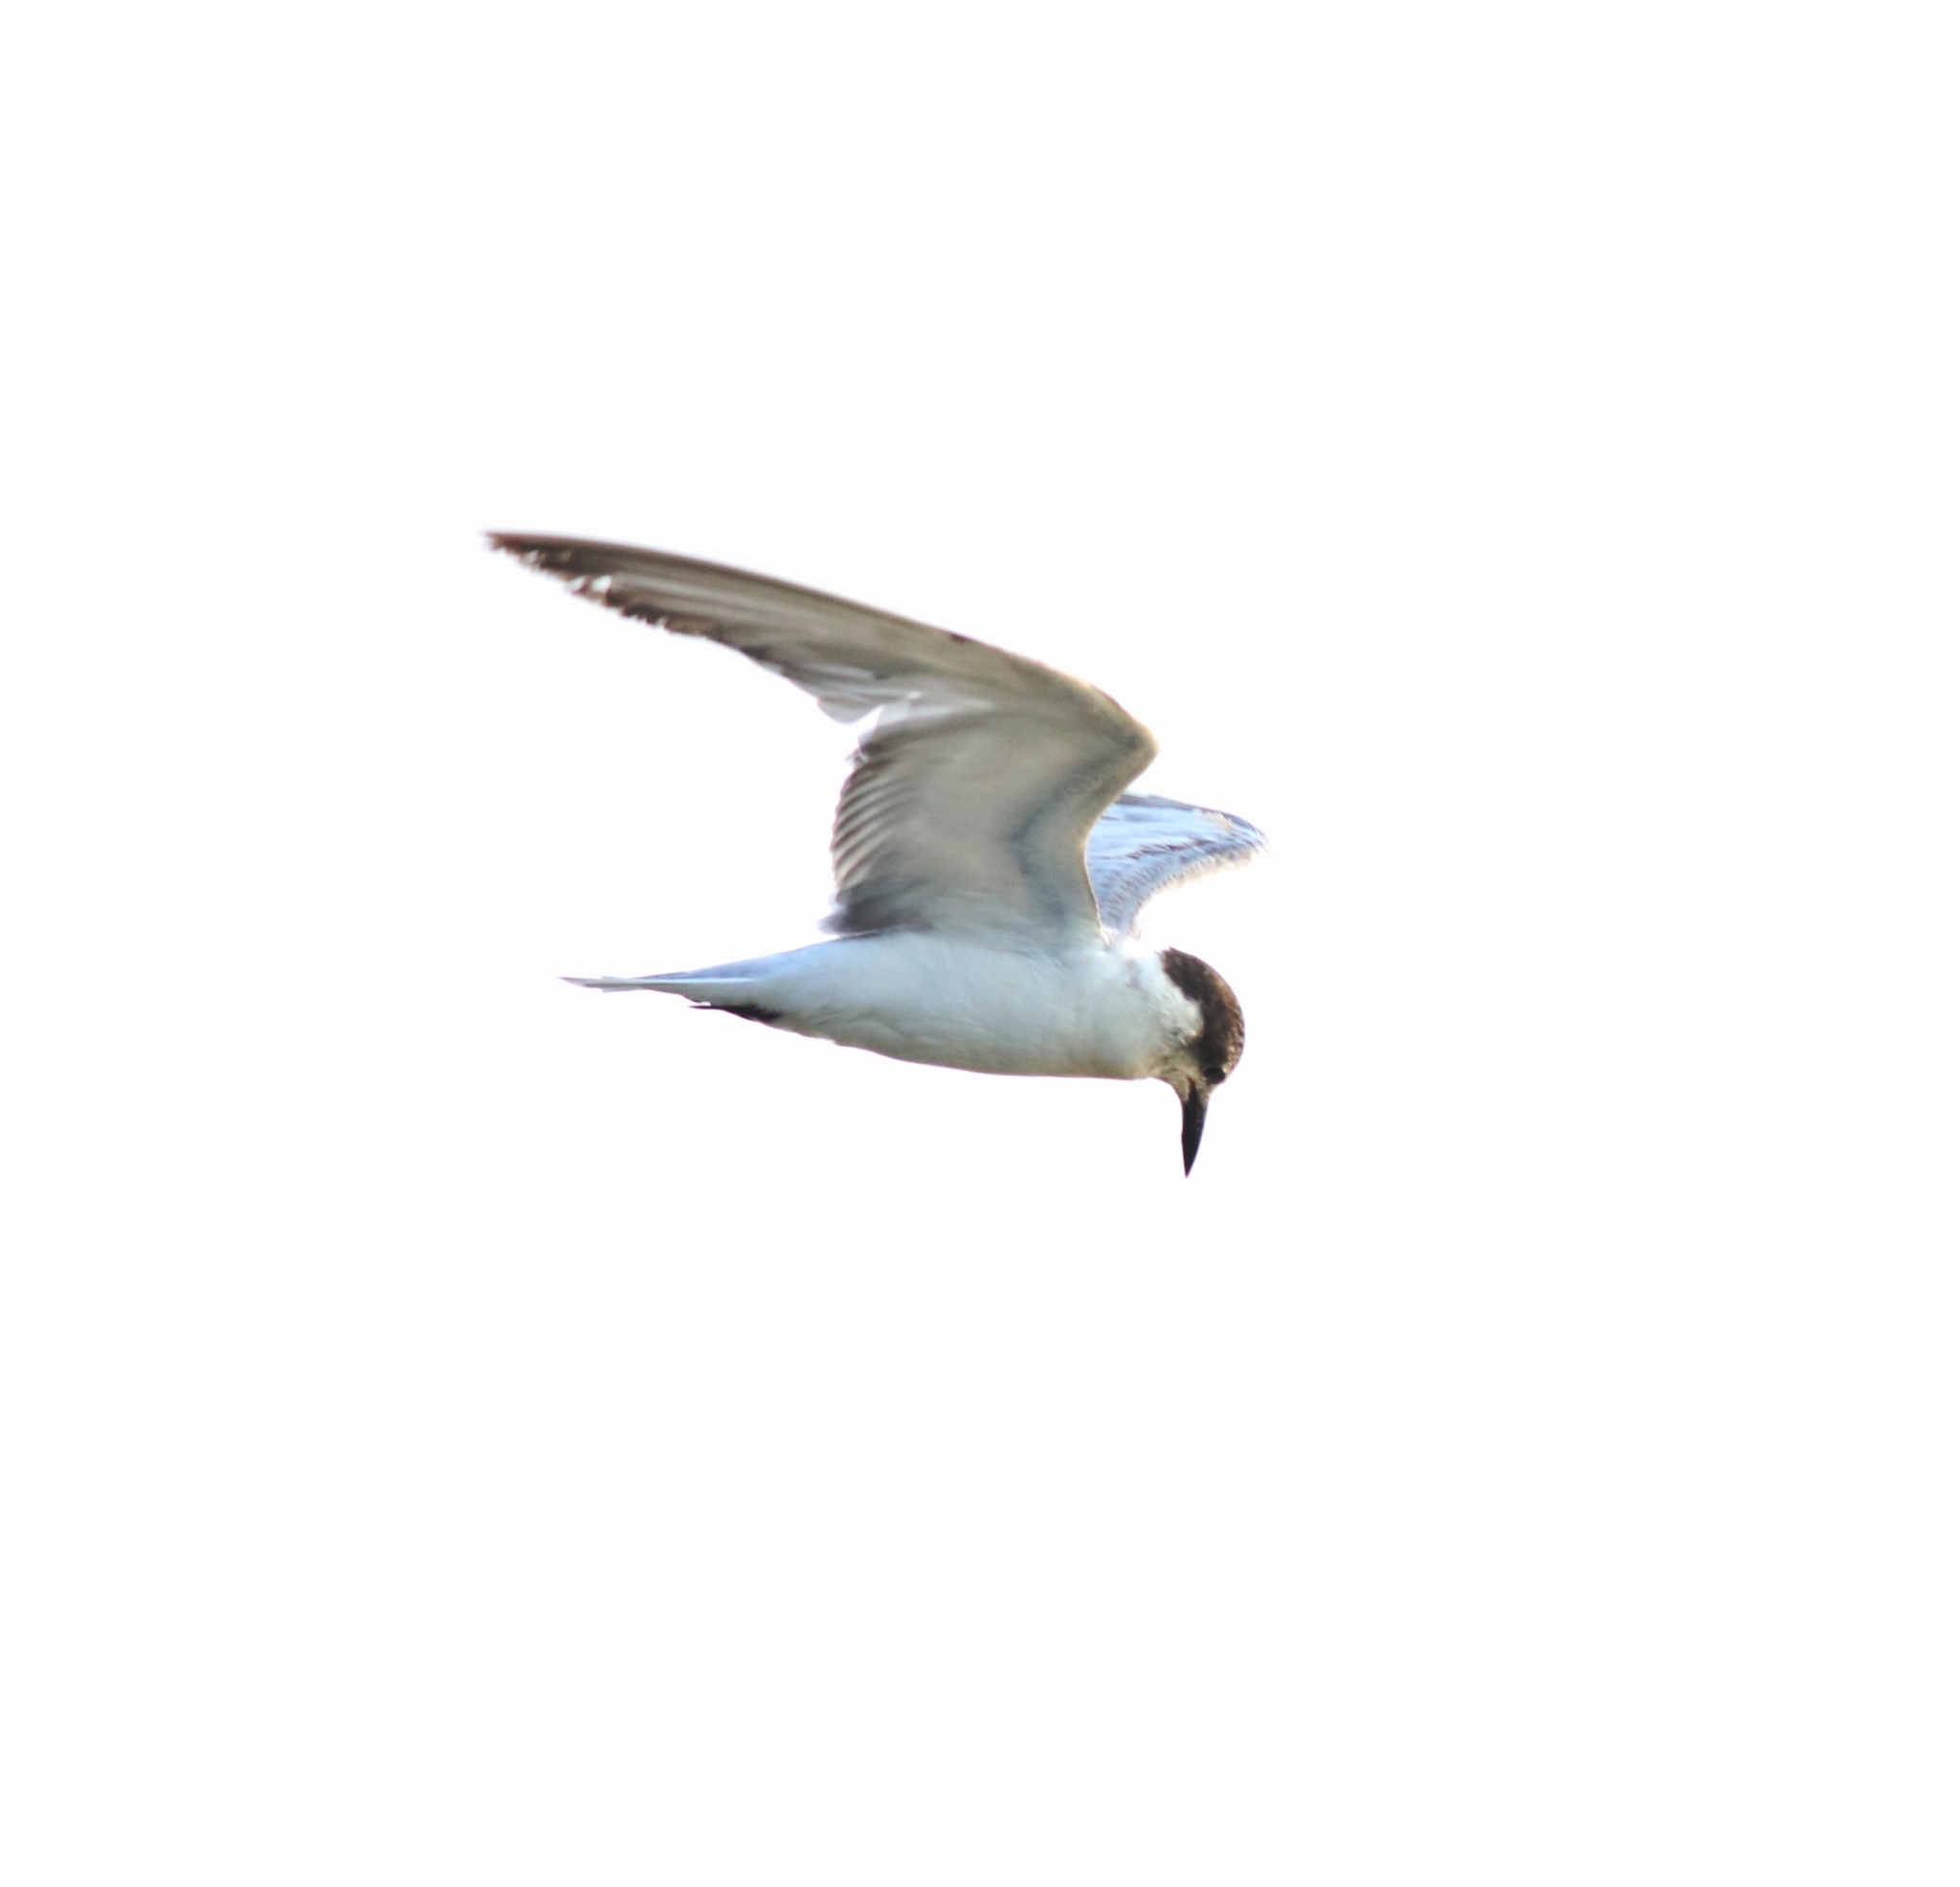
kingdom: Animalia
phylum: Chordata
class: Aves
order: Charadriiformes
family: Laridae
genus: Chlidonias
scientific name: Chlidonias hybrida
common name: Whiskered tern
